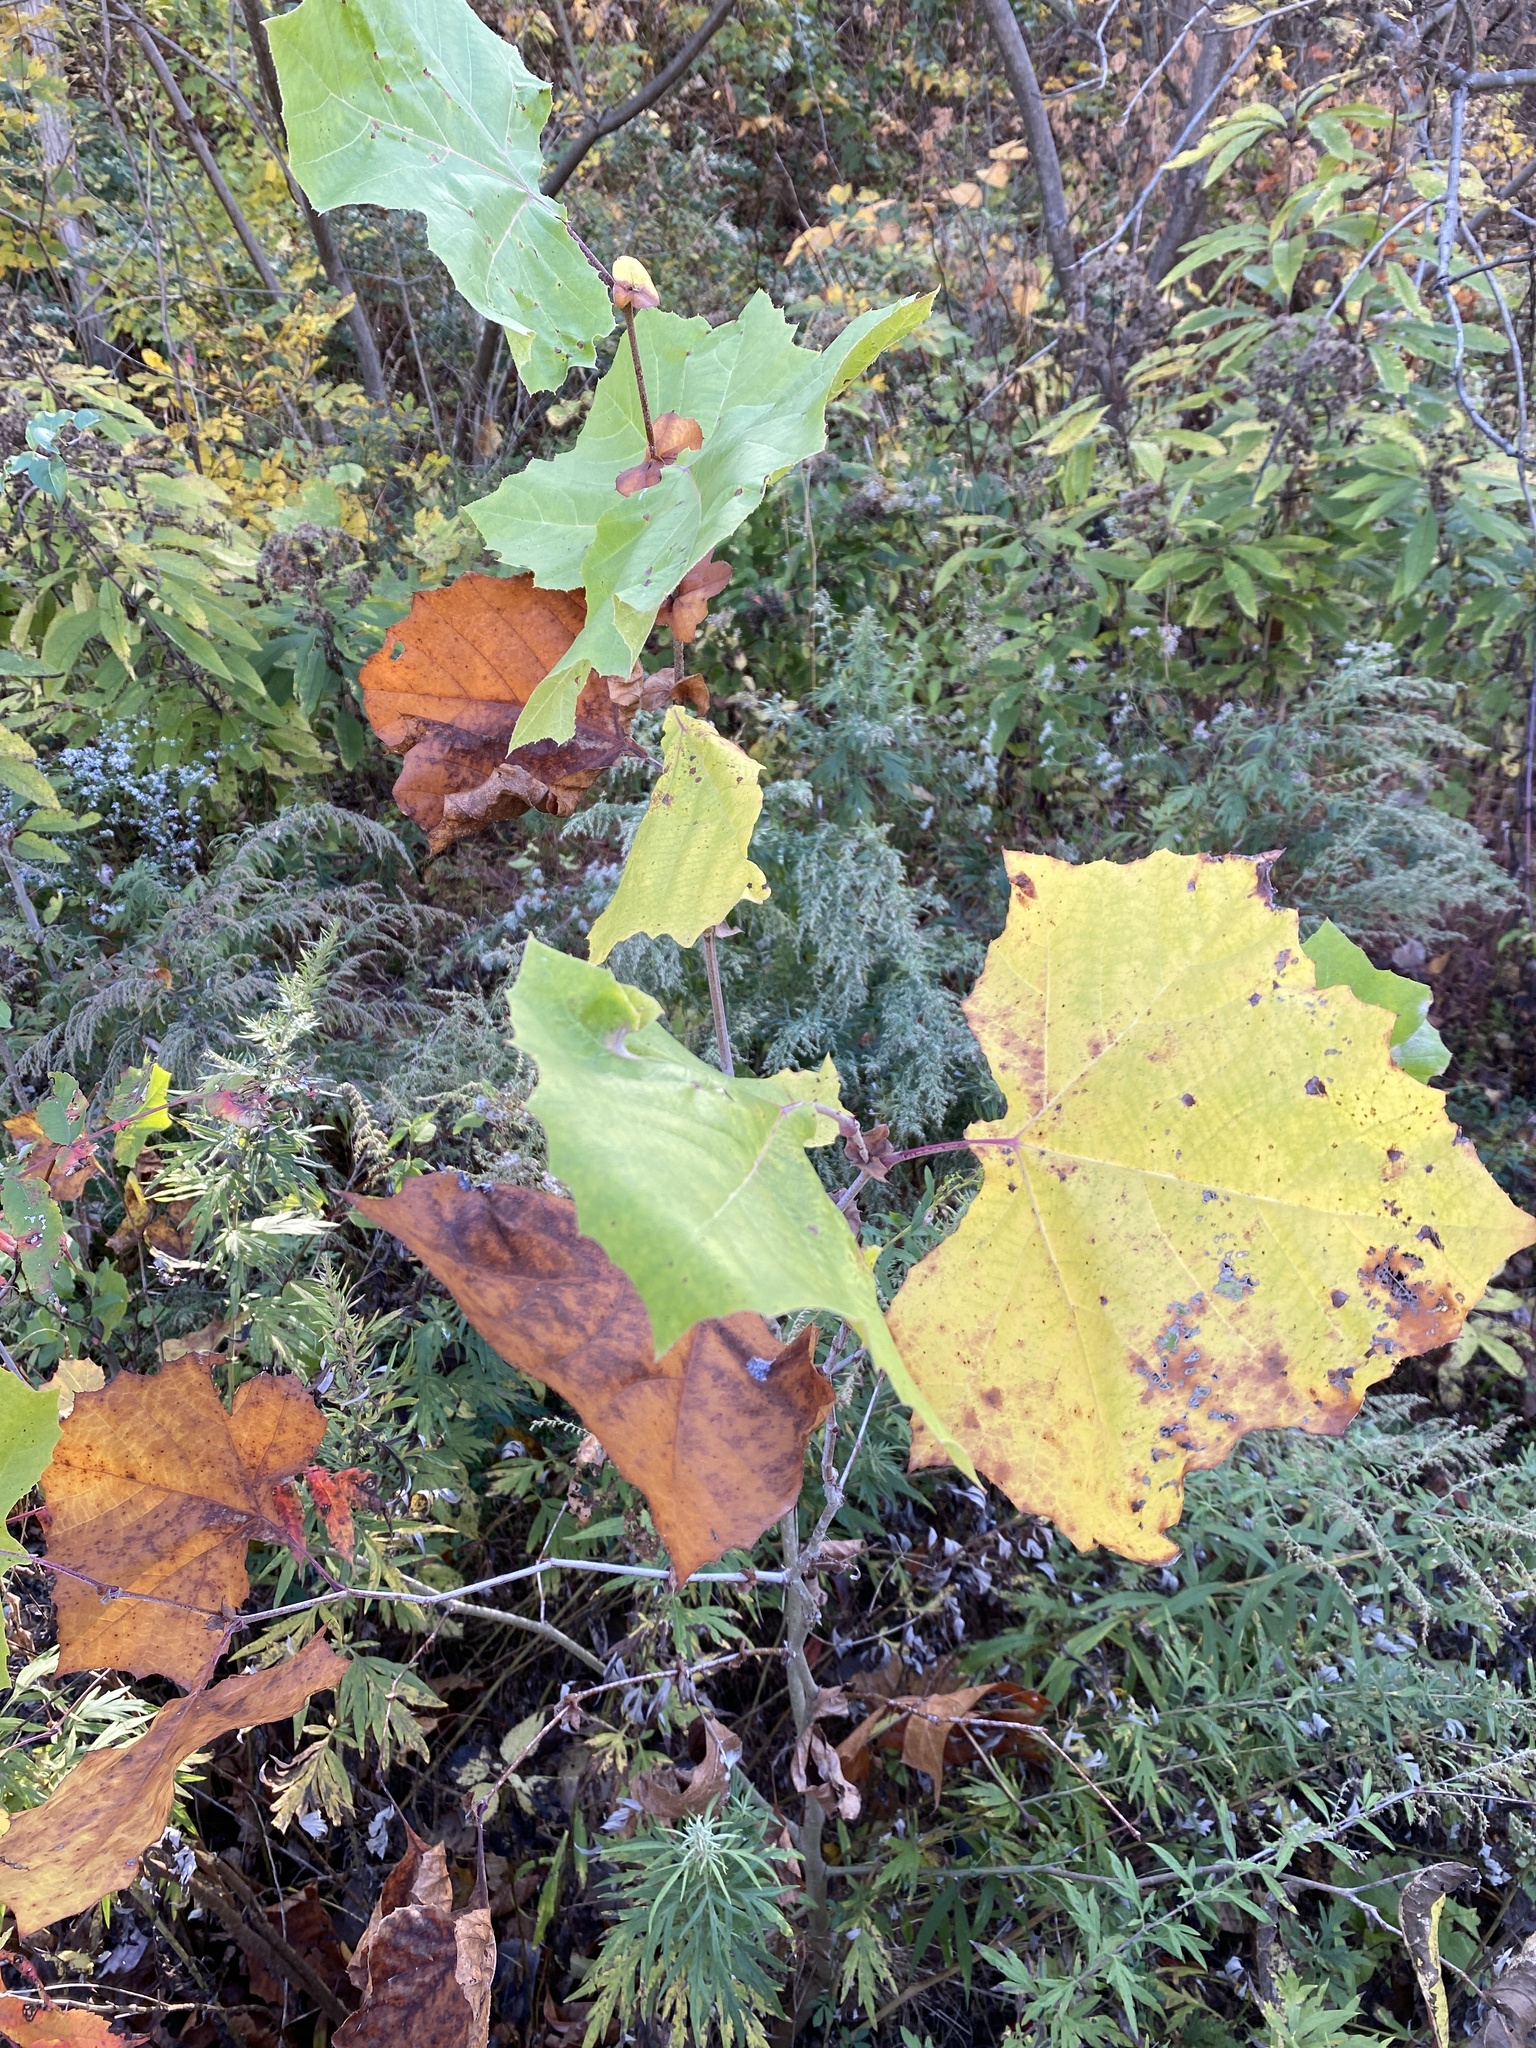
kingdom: Plantae
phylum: Tracheophyta
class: Magnoliopsida
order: Proteales
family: Platanaceae
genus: Platanus
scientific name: Platanus occidentalis
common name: American sycamore
